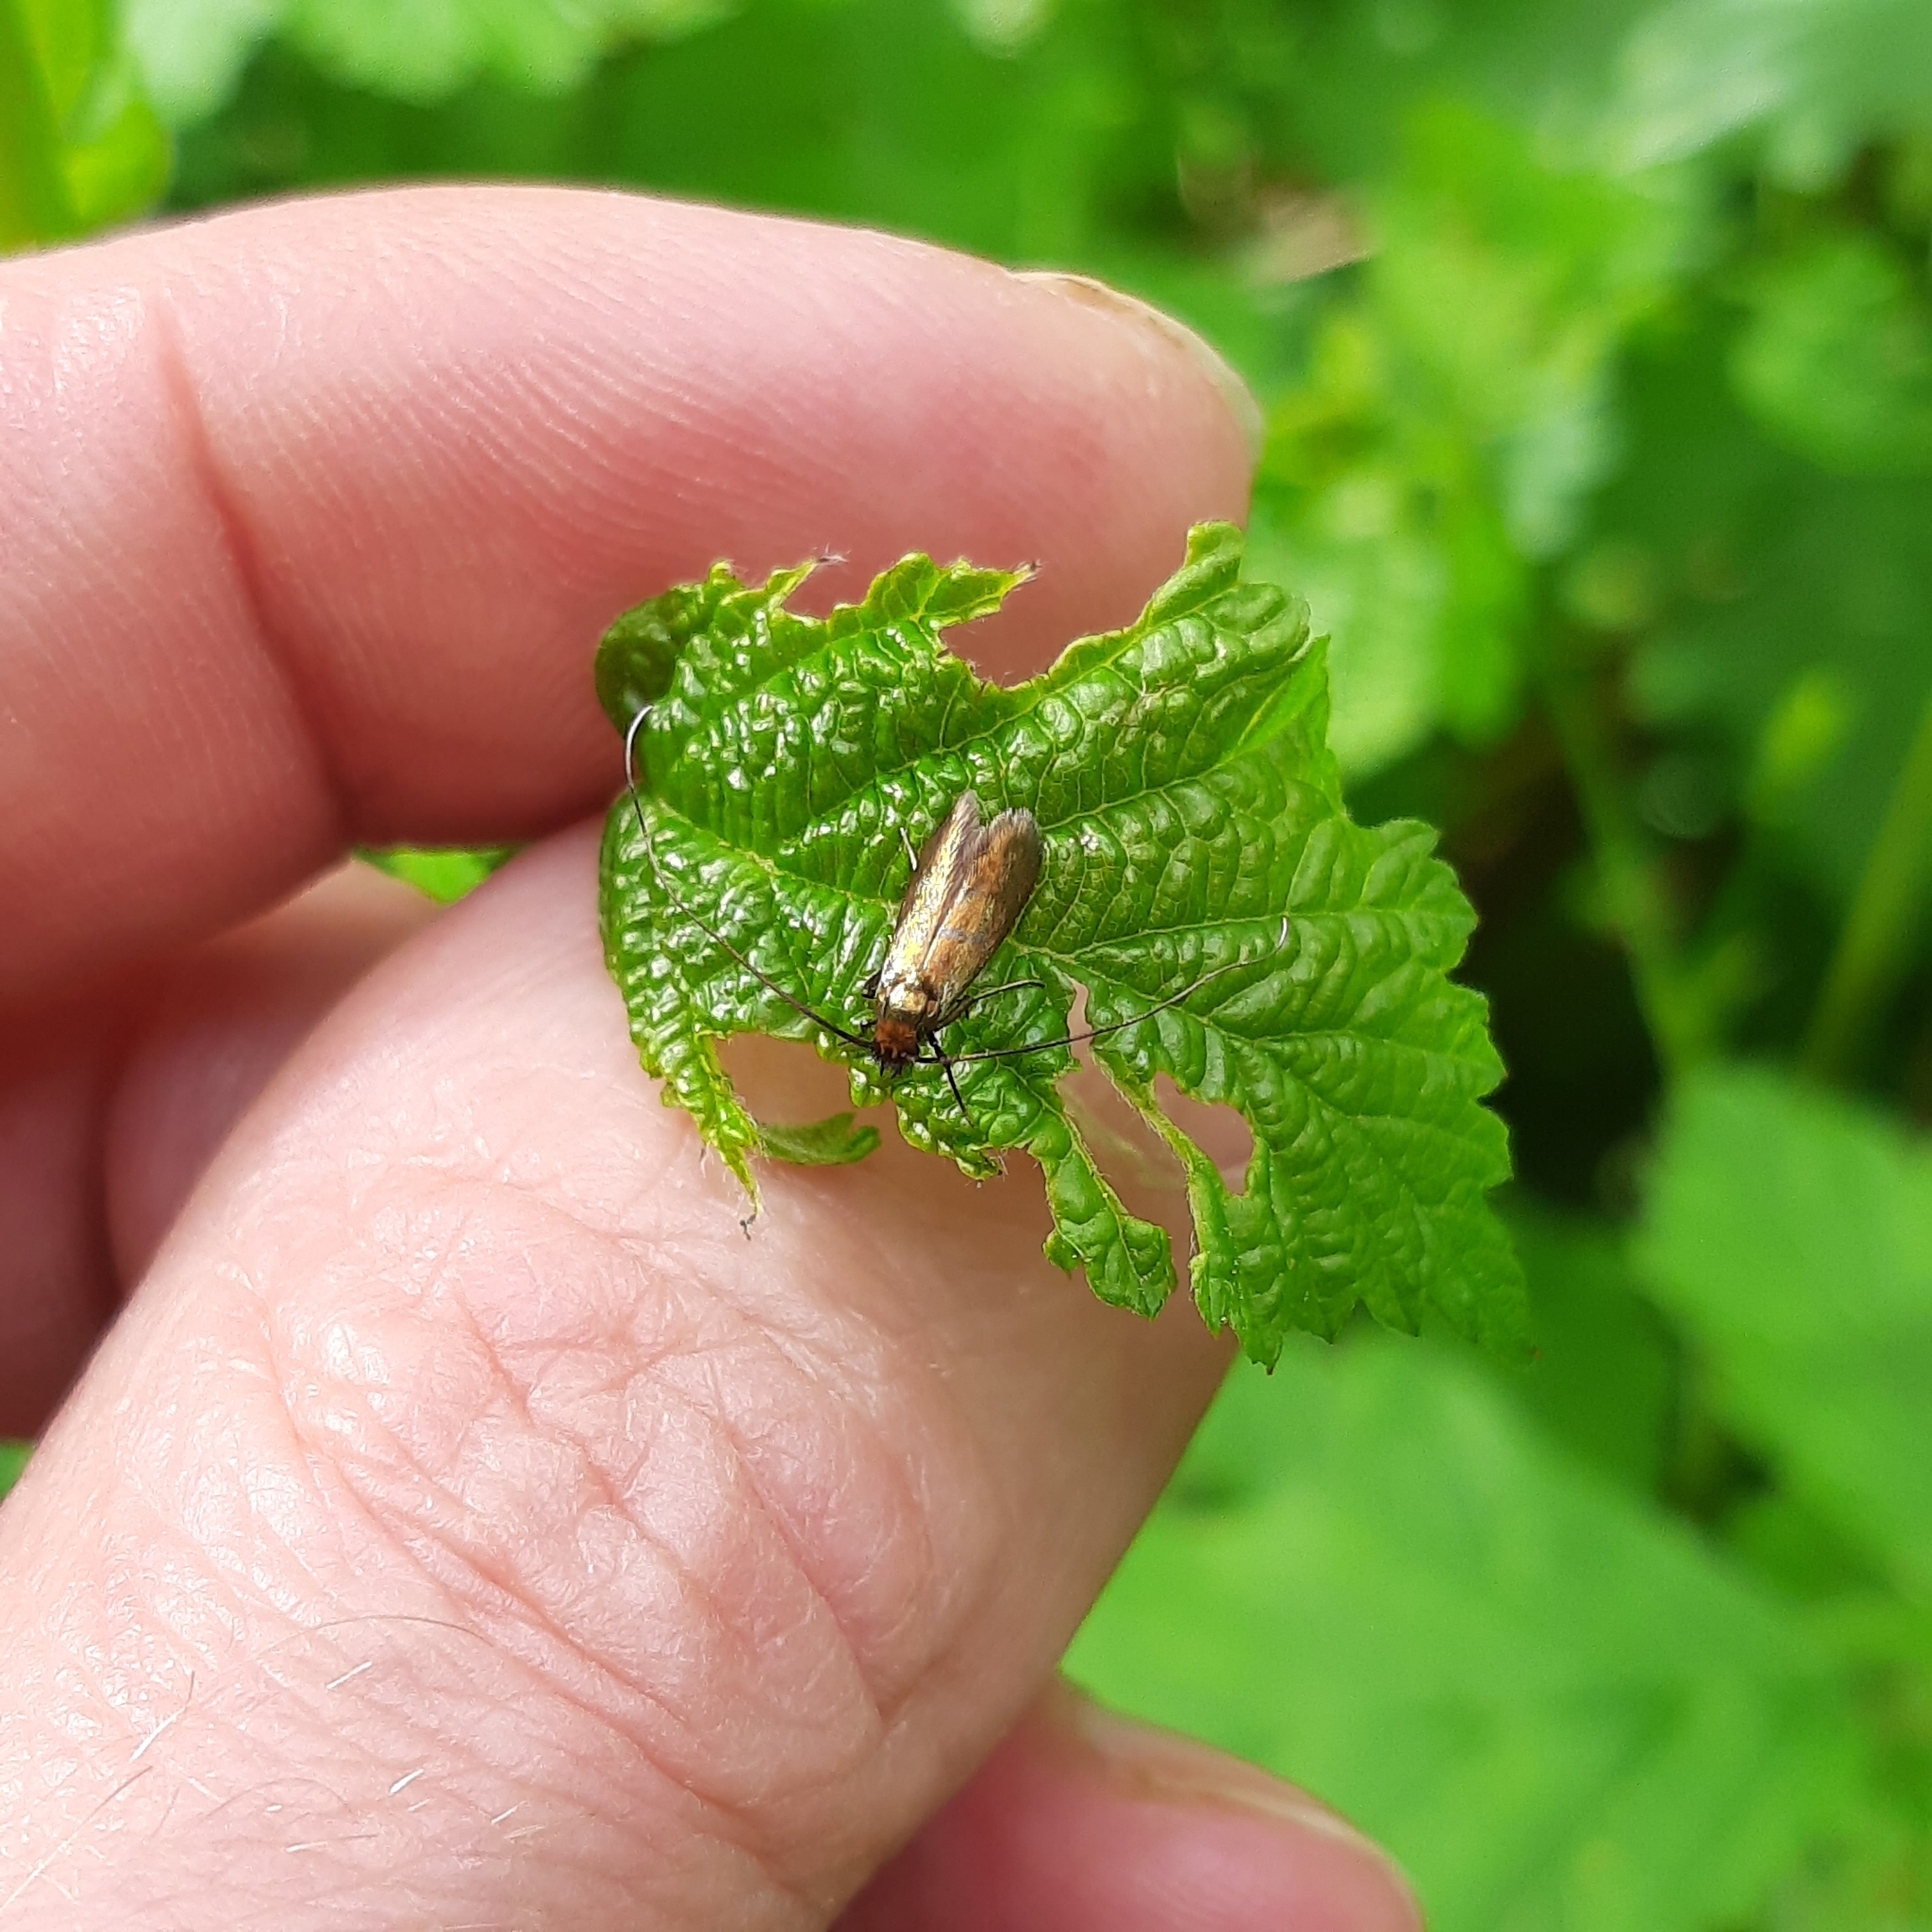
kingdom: Animalia
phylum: Arthropoda
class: Insecta
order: Lepidoptera
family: Adelidae
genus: Cauchas
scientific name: Cauchas rufimitrella
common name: Meadow long-horn
